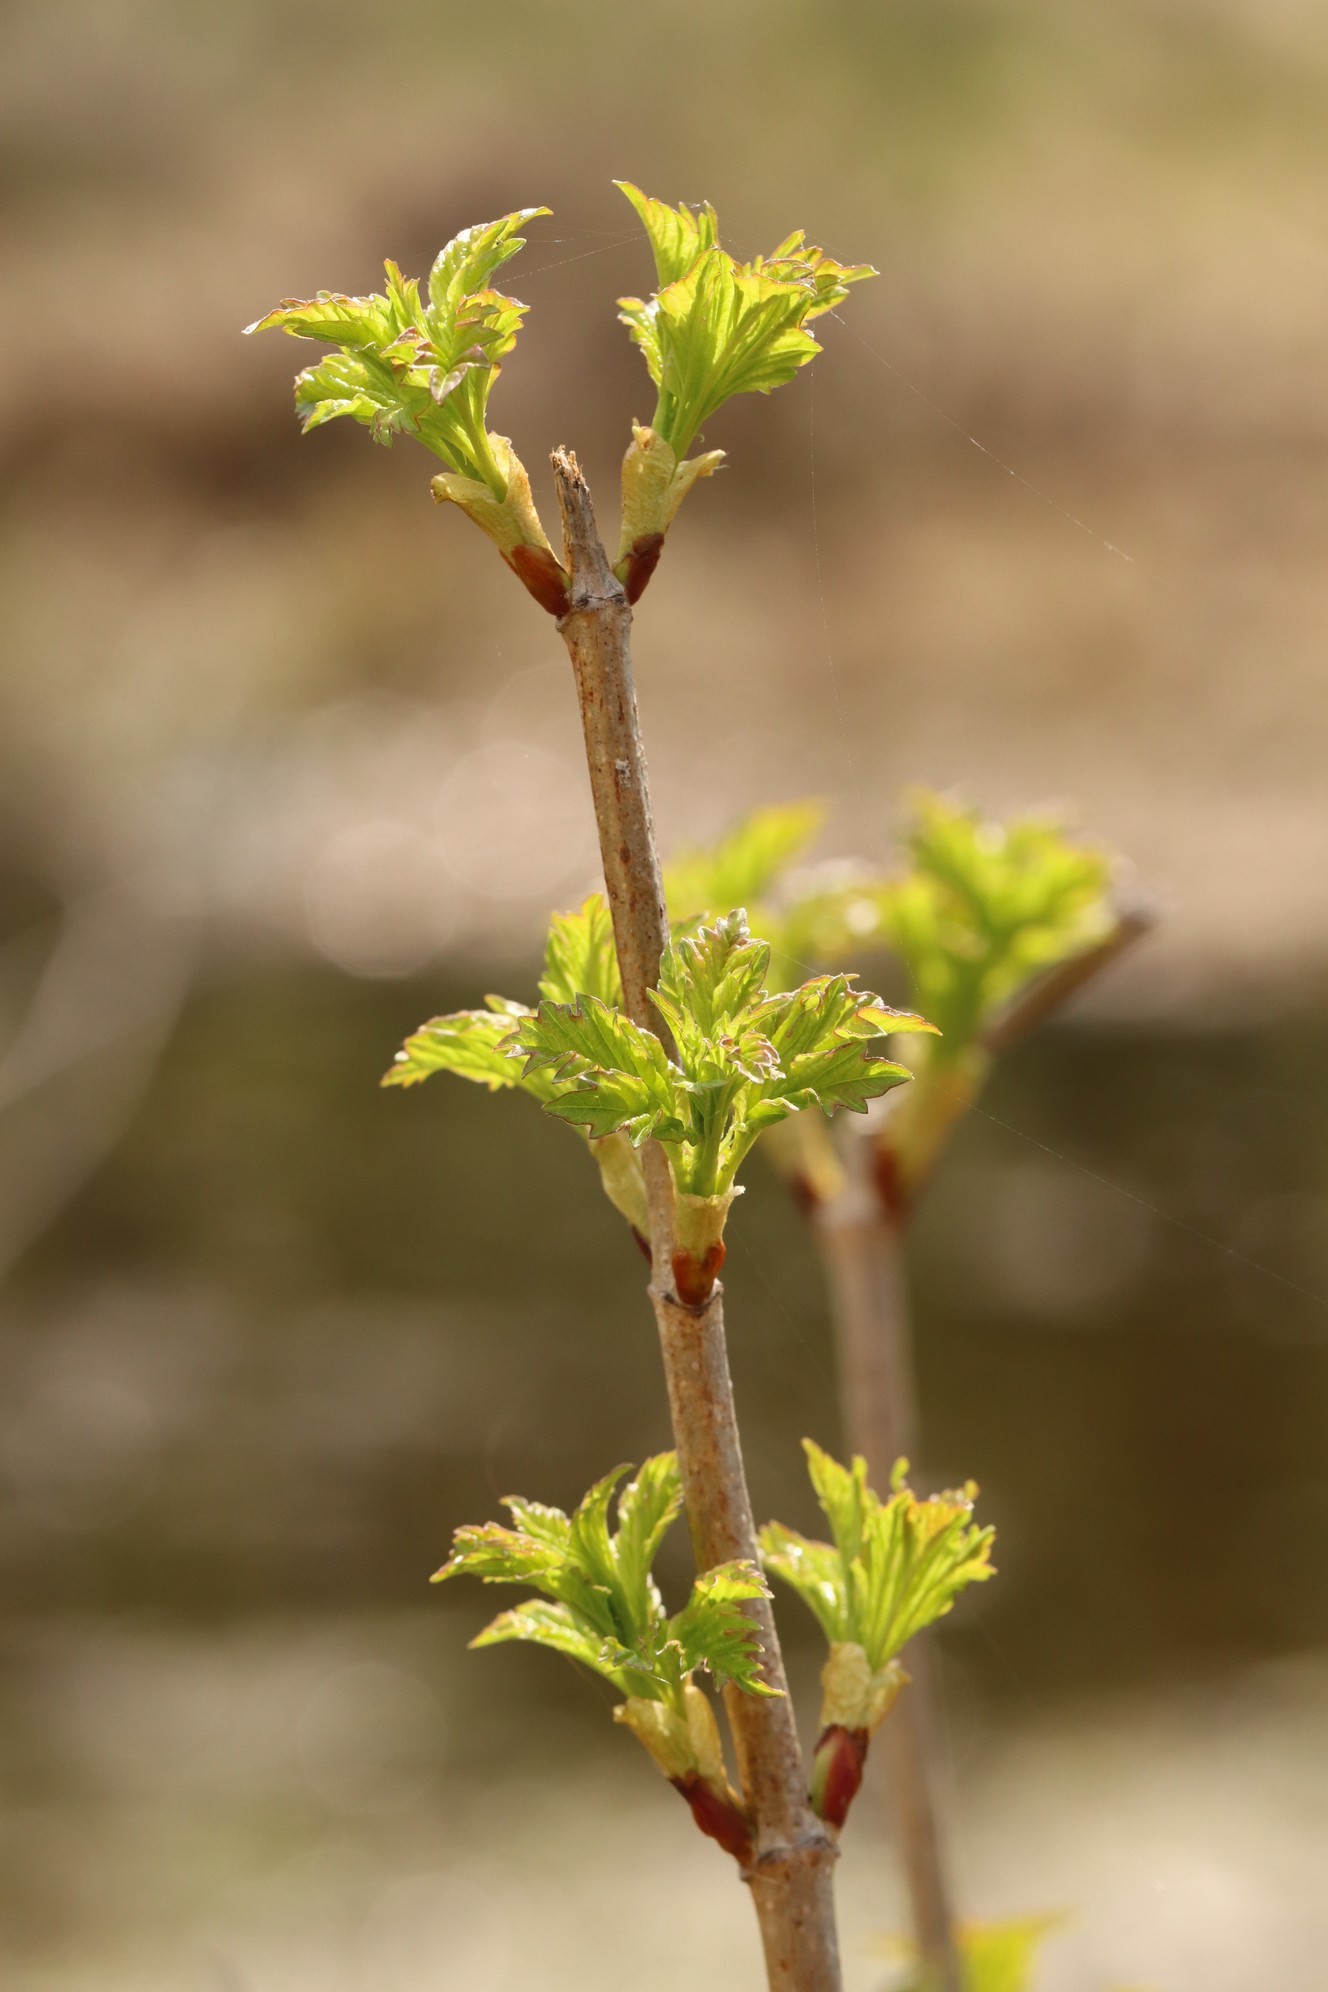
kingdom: Plantae
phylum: Tracheophyta
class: Magnoliopsida
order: Dipsacales
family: Viburnaceae
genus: Viburnum
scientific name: Viburnum opulus
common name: Guelder-rose
